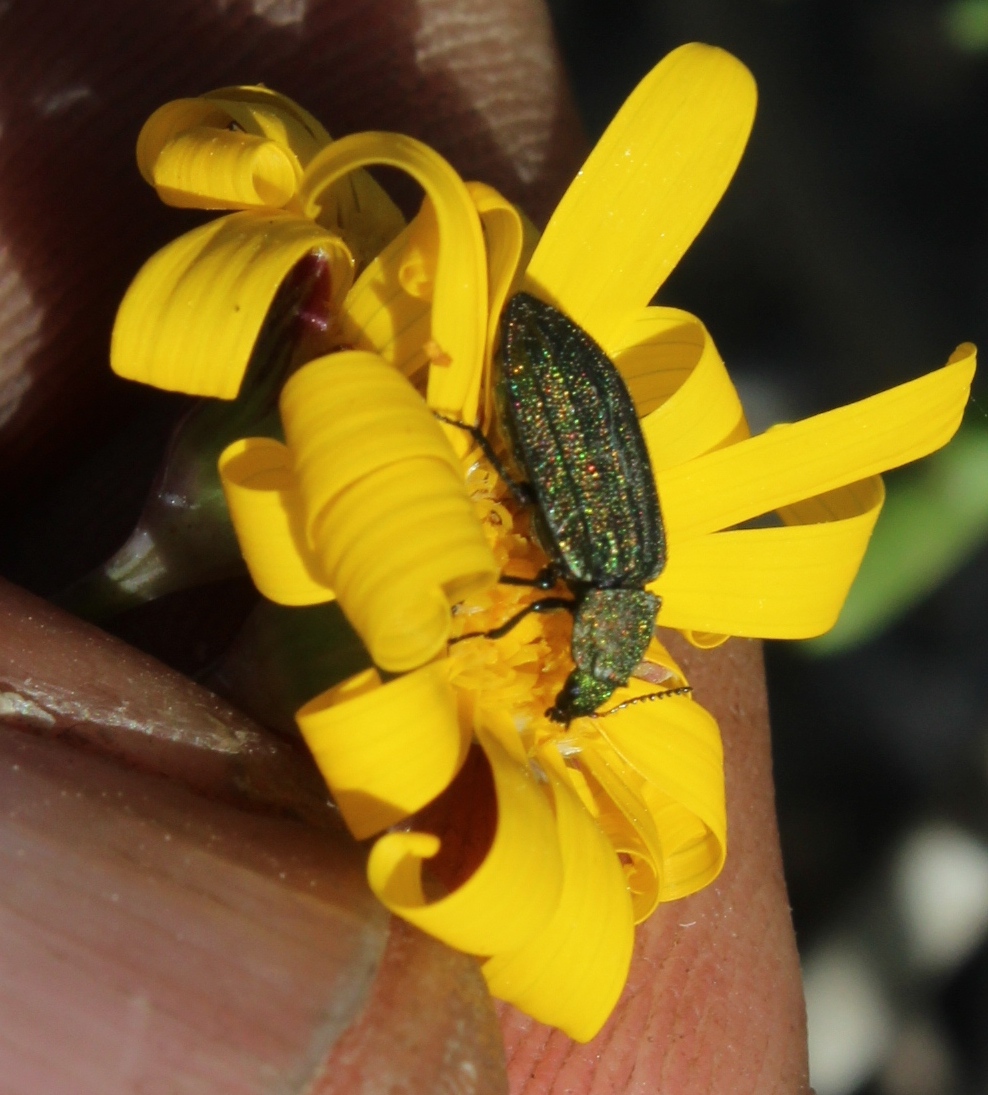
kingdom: Animalia
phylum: Arthropoda
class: Insecta
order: Coleoptera
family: Melyridae
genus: Melyris
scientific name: Melyris viridis
